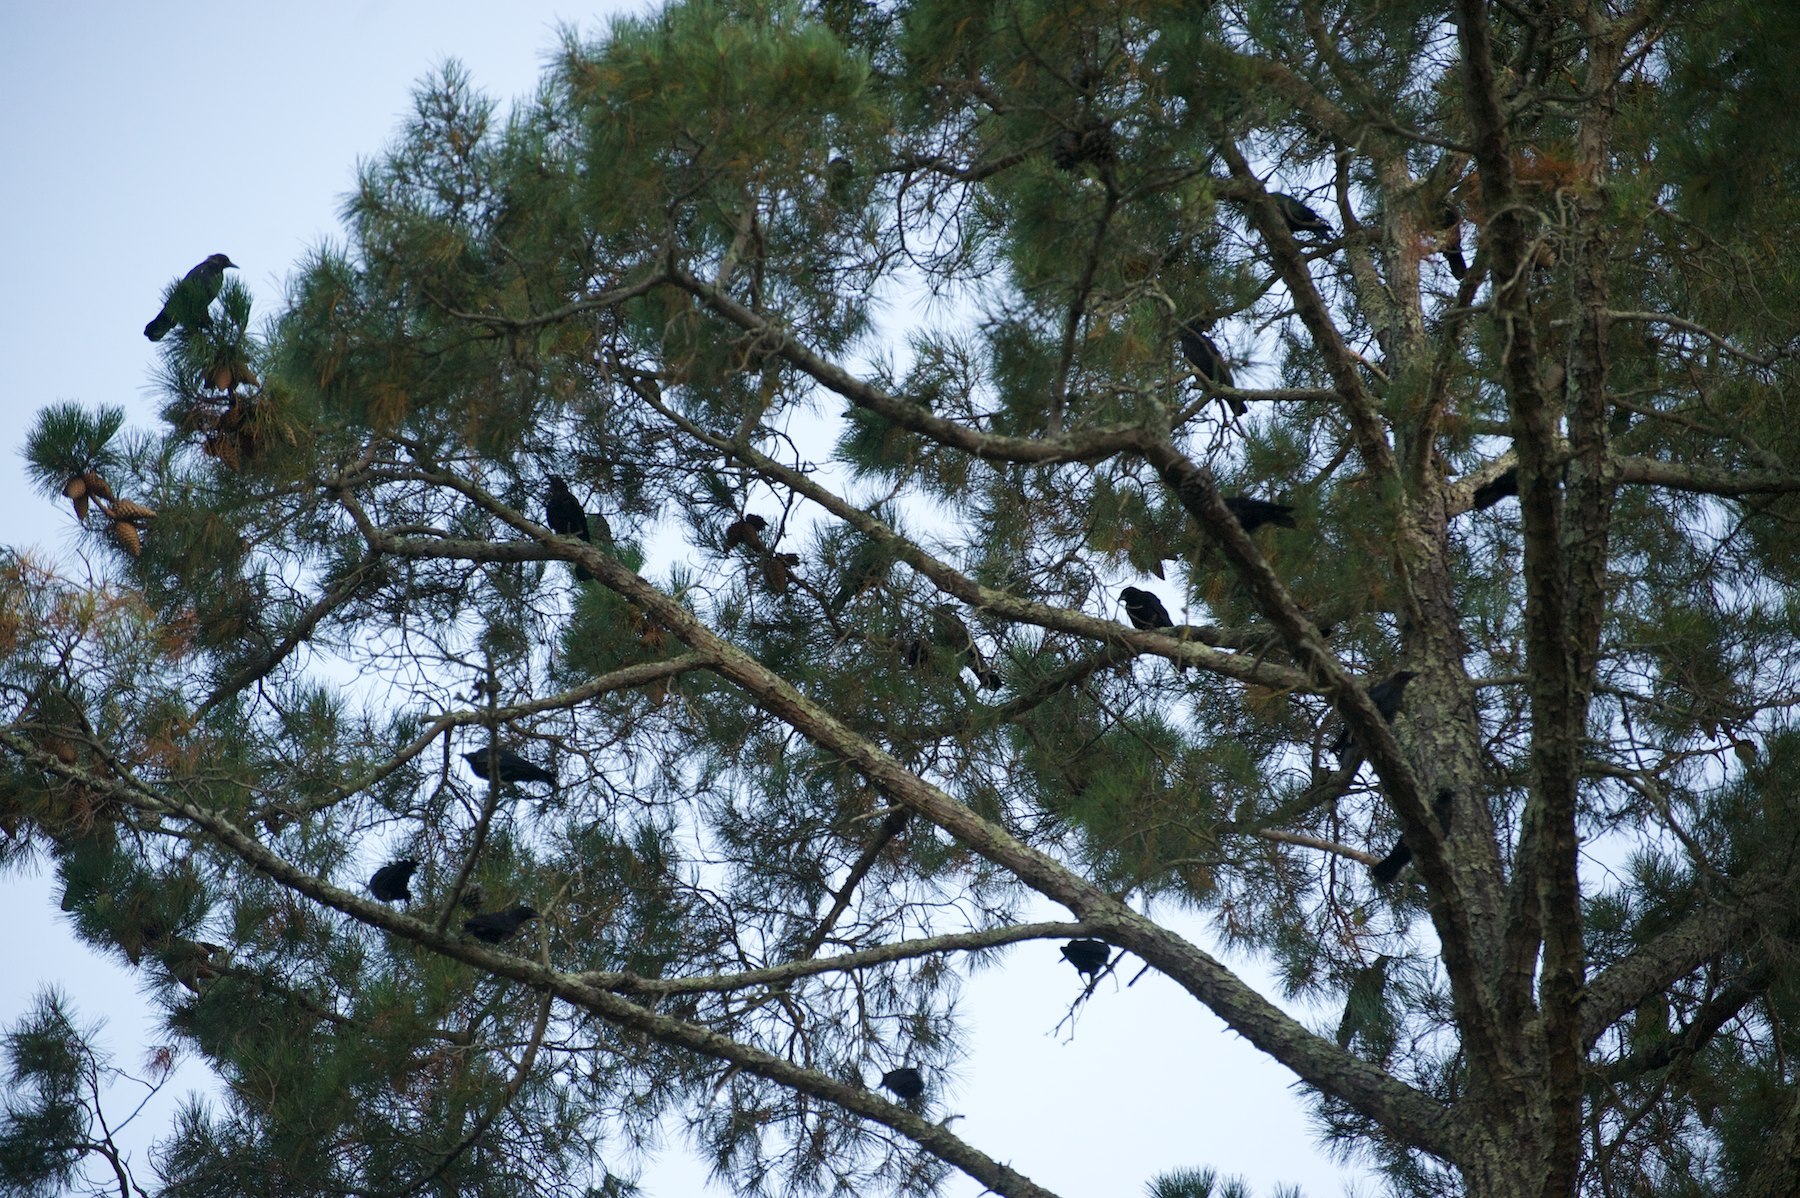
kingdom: Animalia
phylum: Chordata
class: Aves
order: Passeriformes
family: Corvidae
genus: Corvus
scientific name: Corvus brachyrhynchos
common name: American crow
